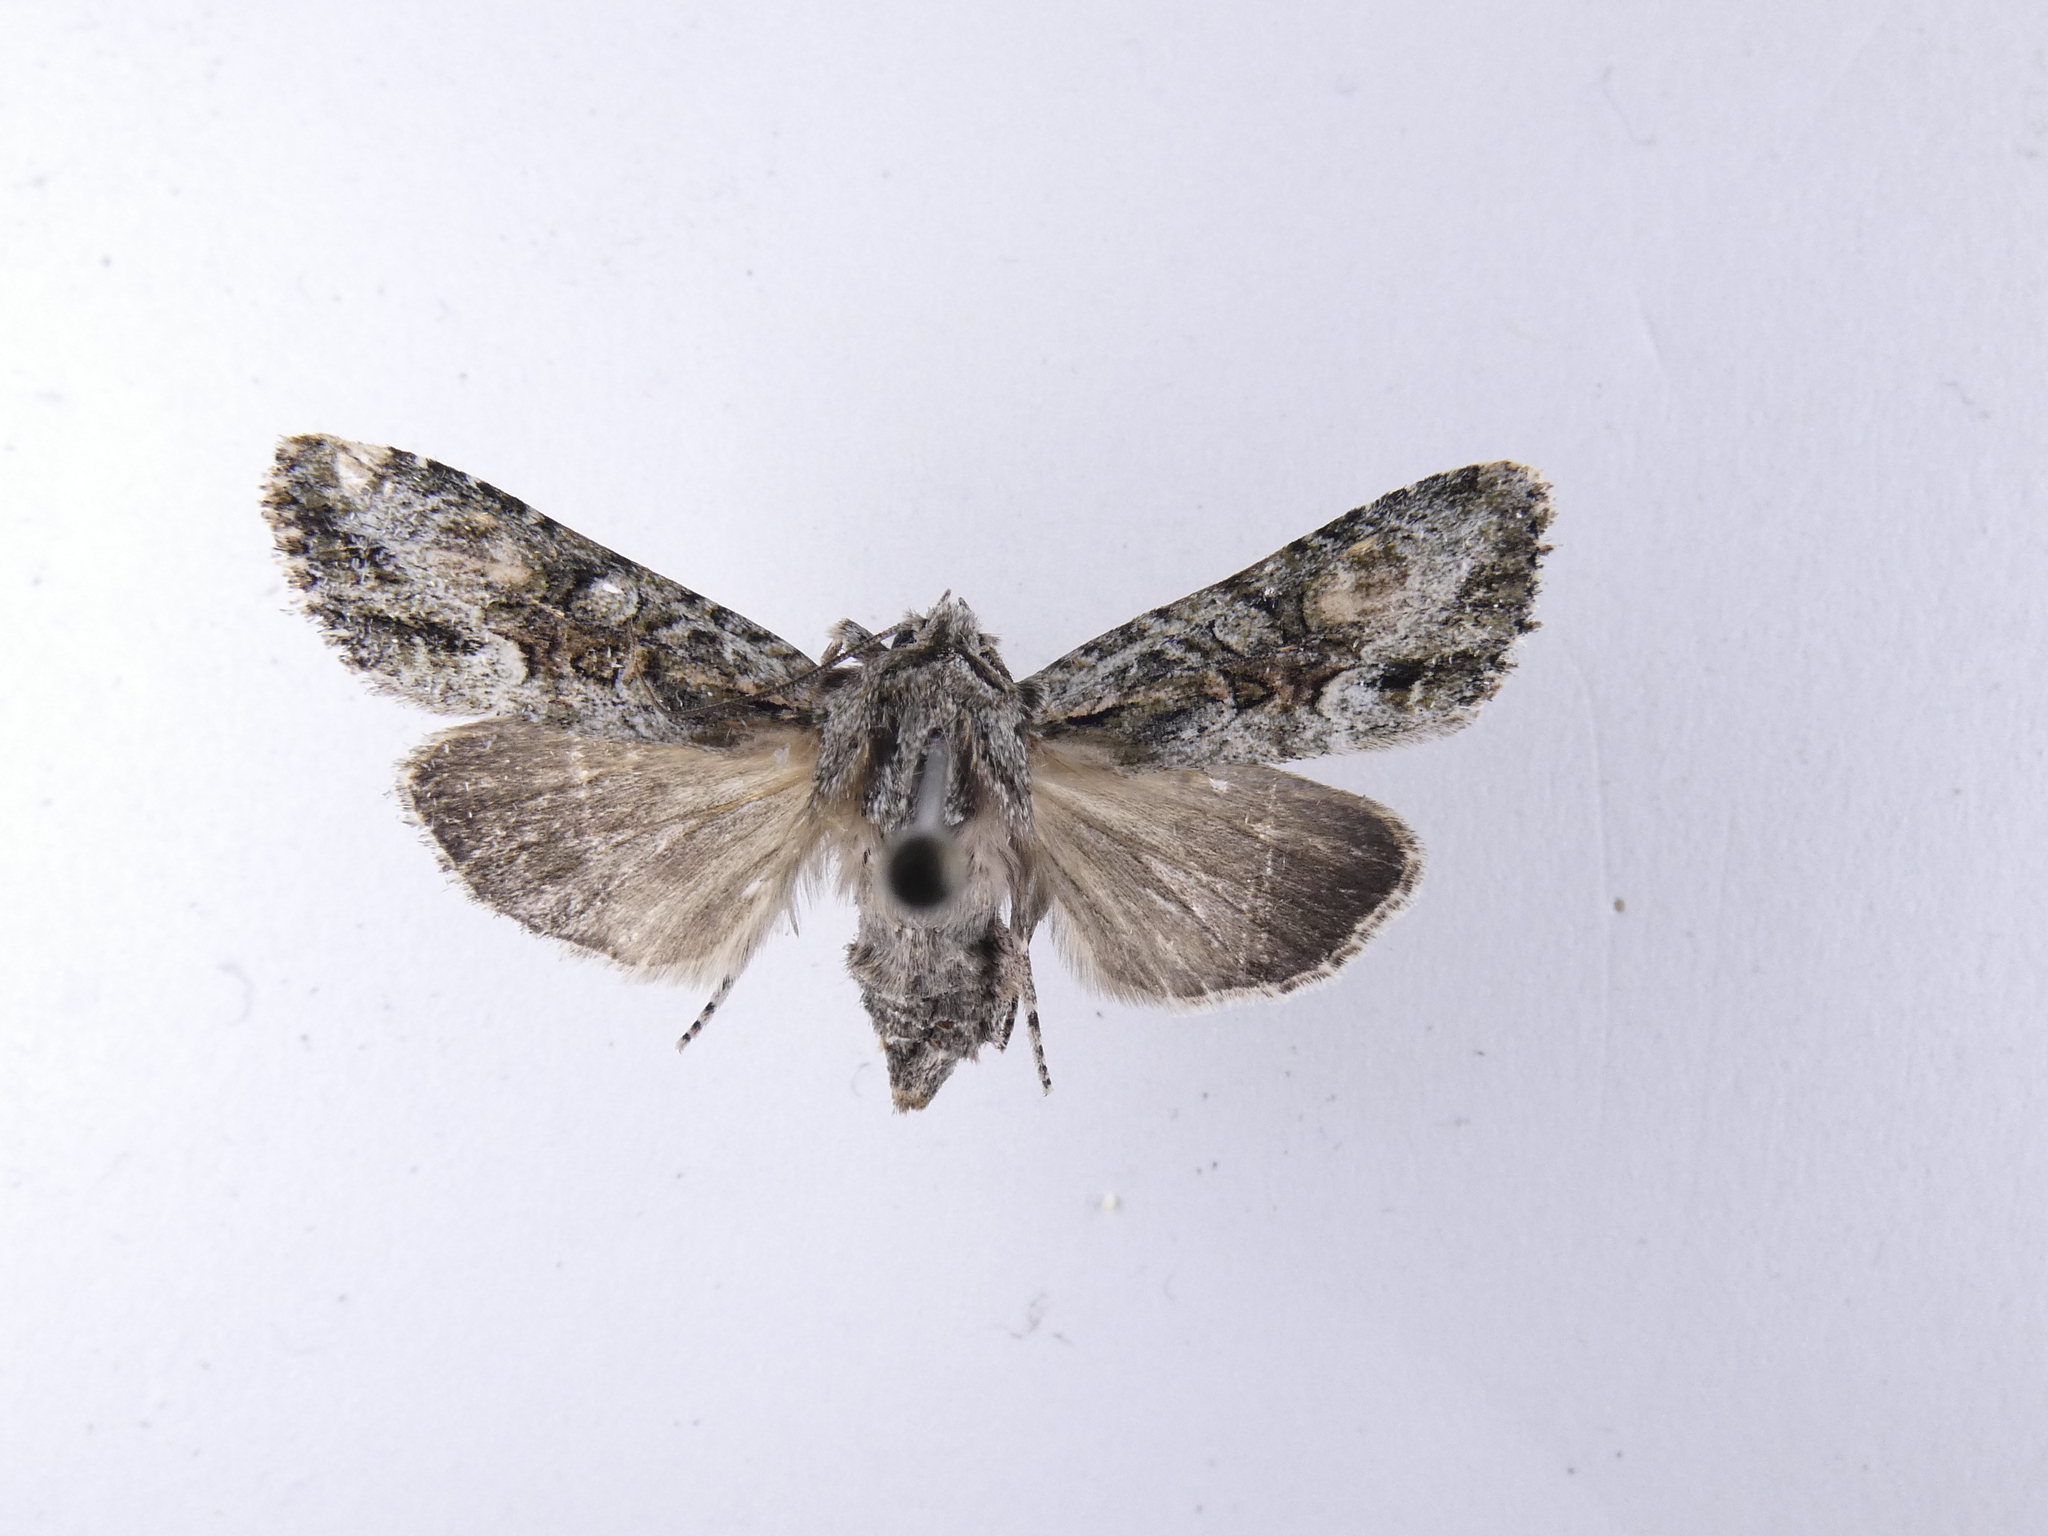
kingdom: Animalia
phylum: Arthropoda
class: Insecta
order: Lepidoptera
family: Noctuidae
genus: Ichneutica
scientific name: Ichneutica mutans
